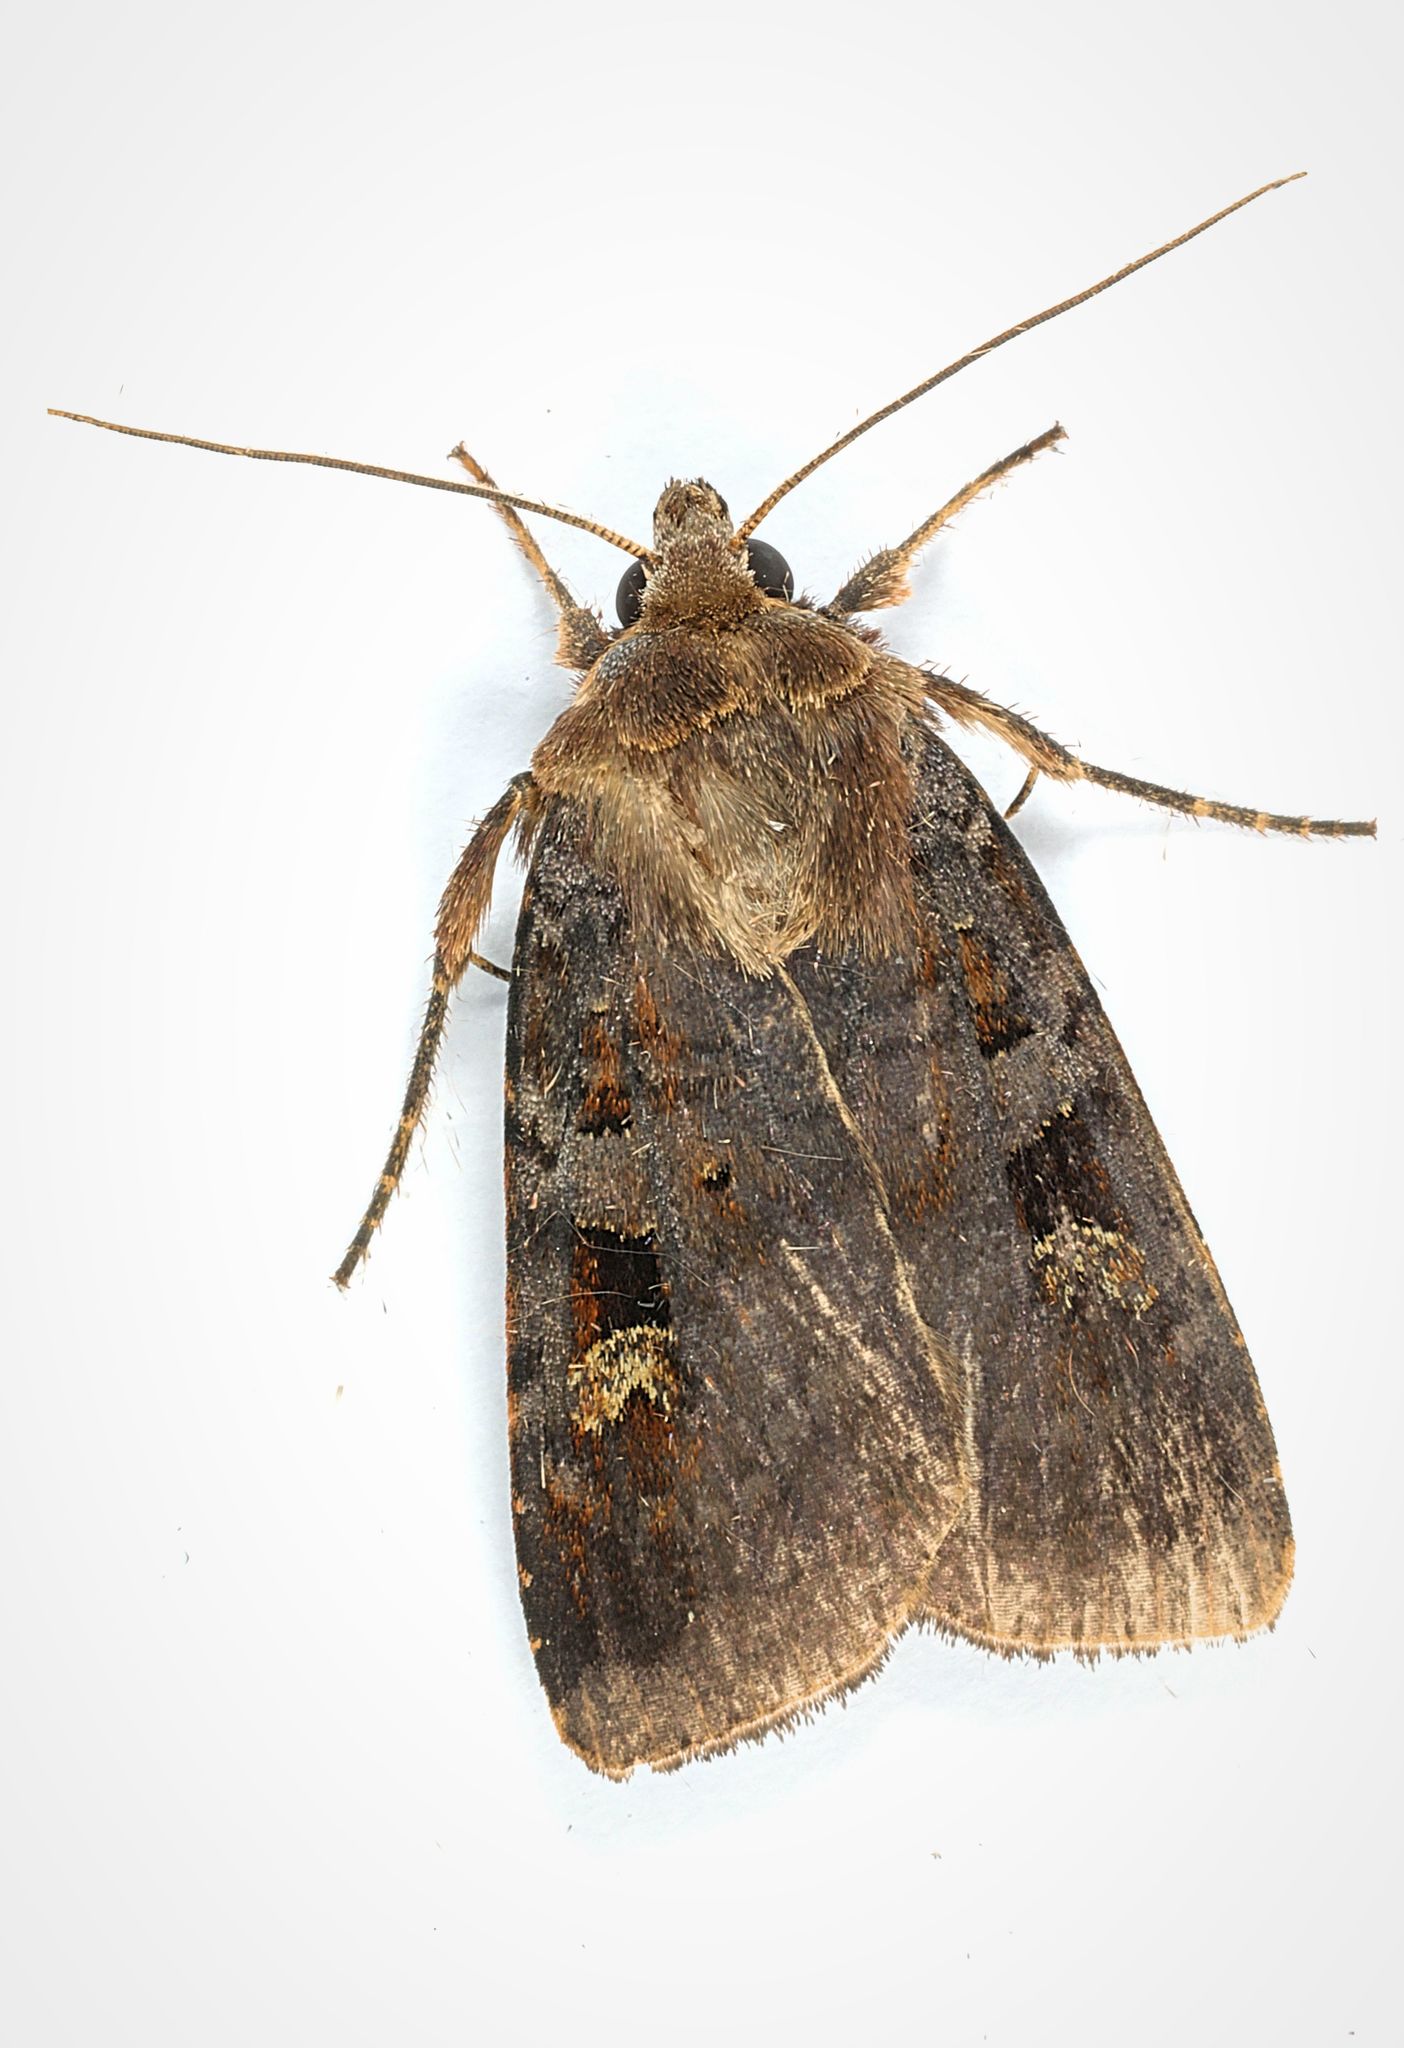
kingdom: Animalia
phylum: Arthropoda
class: Insecta
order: Lepidoptera
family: Noctuidae
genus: Diarsia
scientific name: Diarsia brunnea
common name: Purple clay
